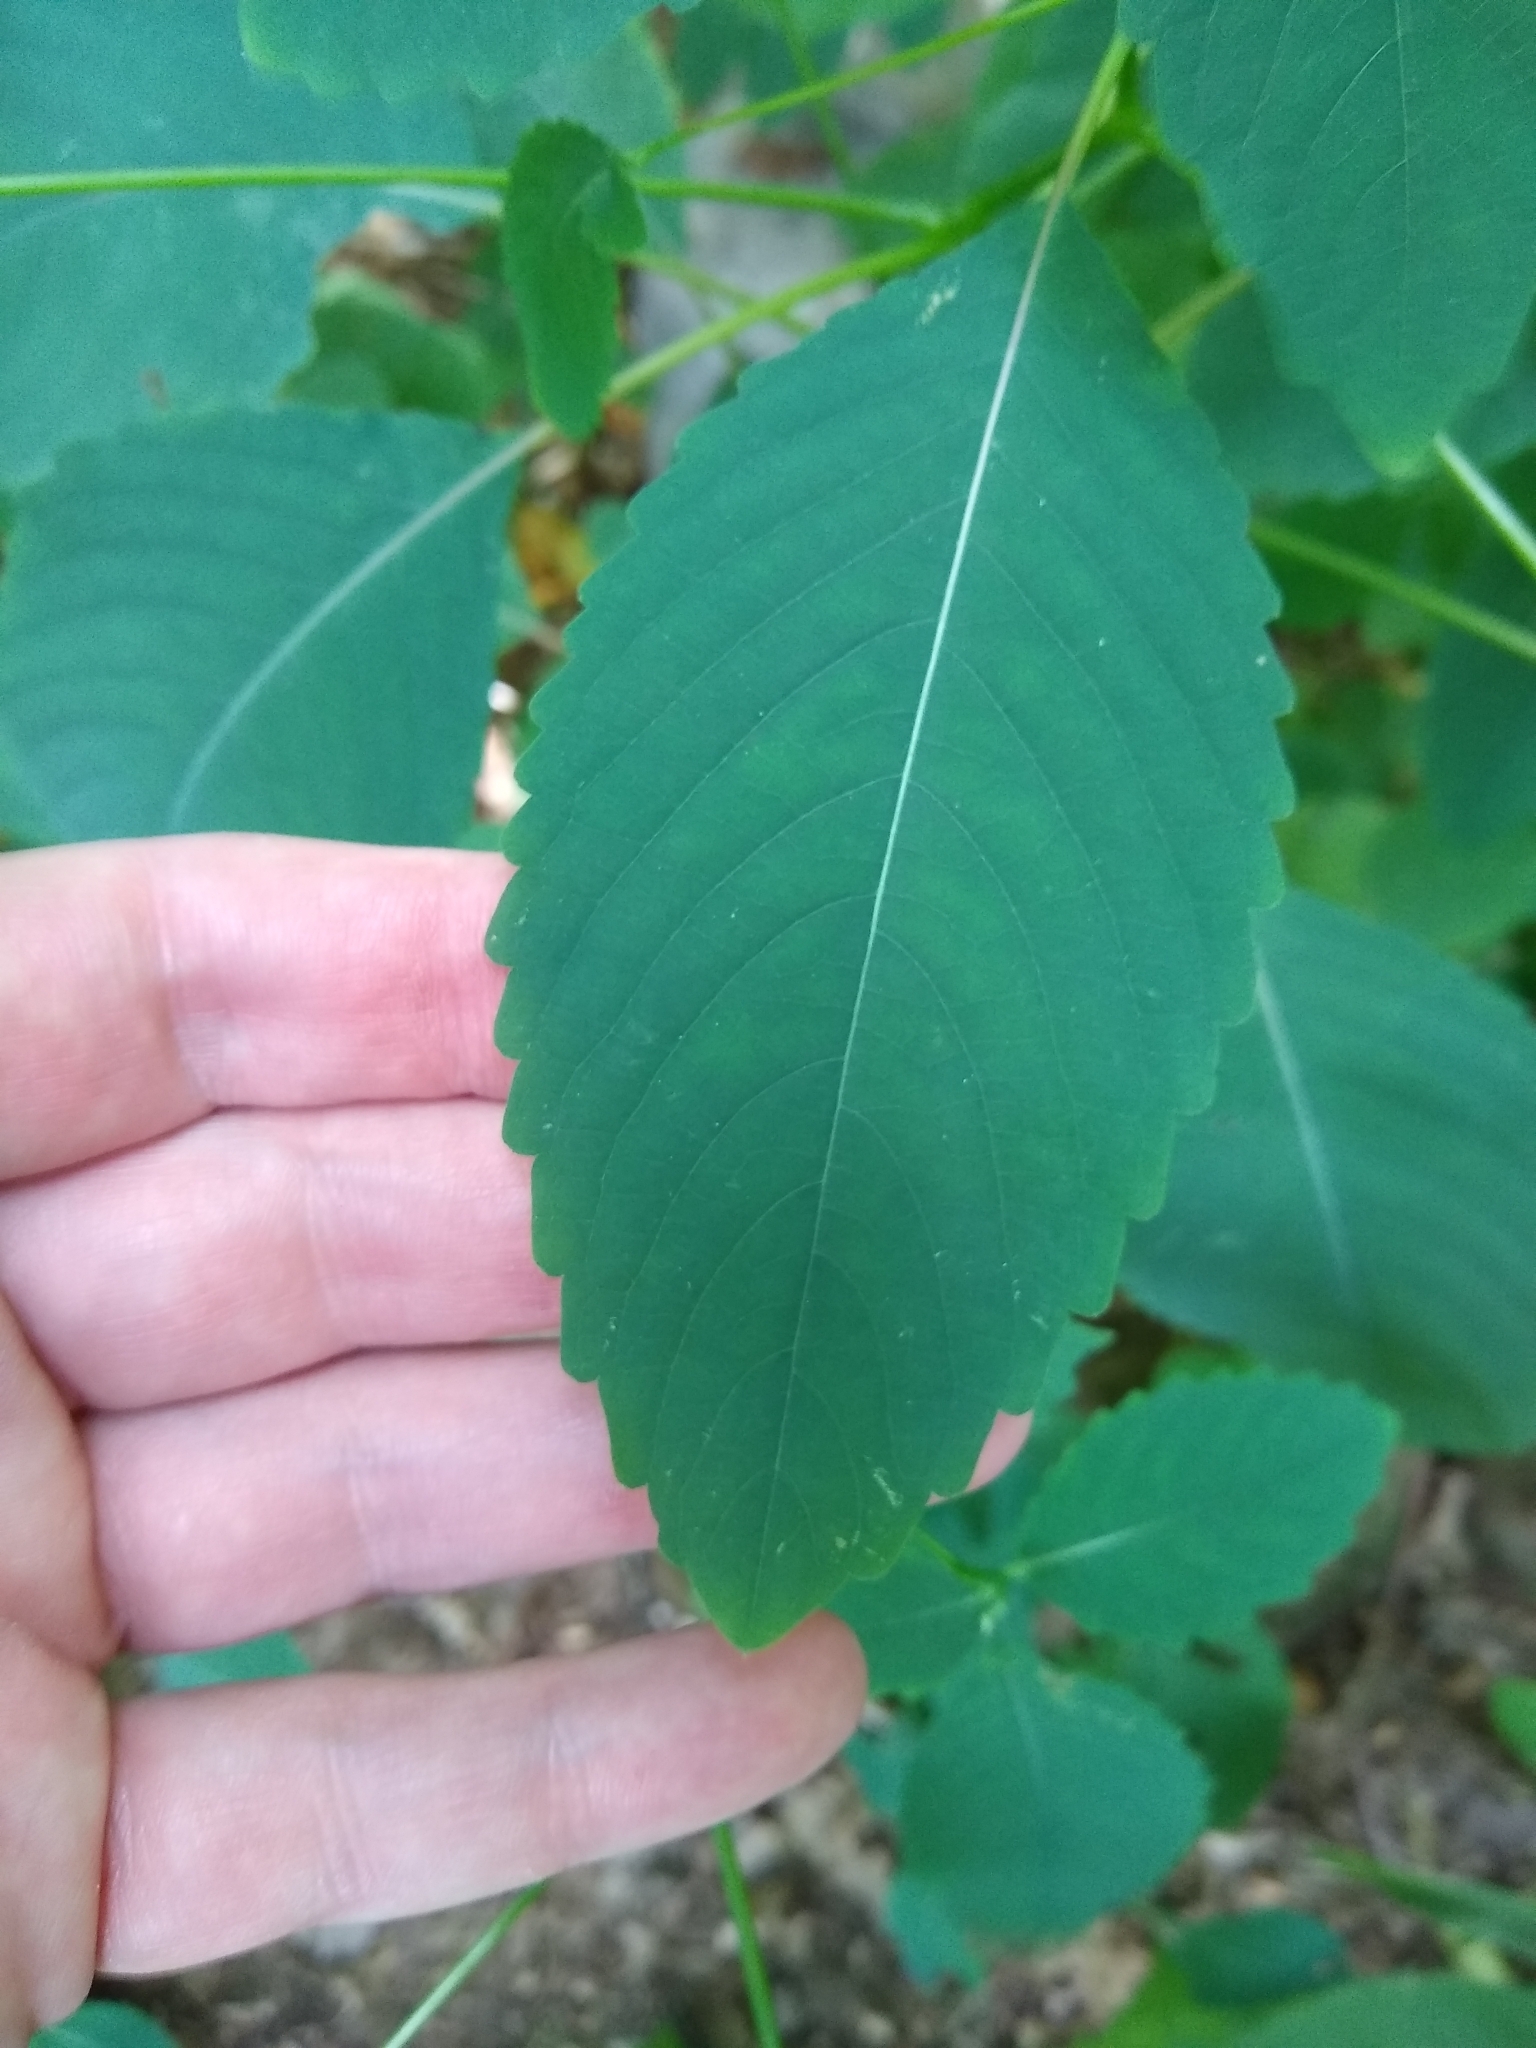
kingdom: Plantae
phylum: Tracheophyta
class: Magnoliopsida
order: Ericales
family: Balsaminaceae
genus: Impatiens
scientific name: Impatiens pallida
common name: Pale snapweed
